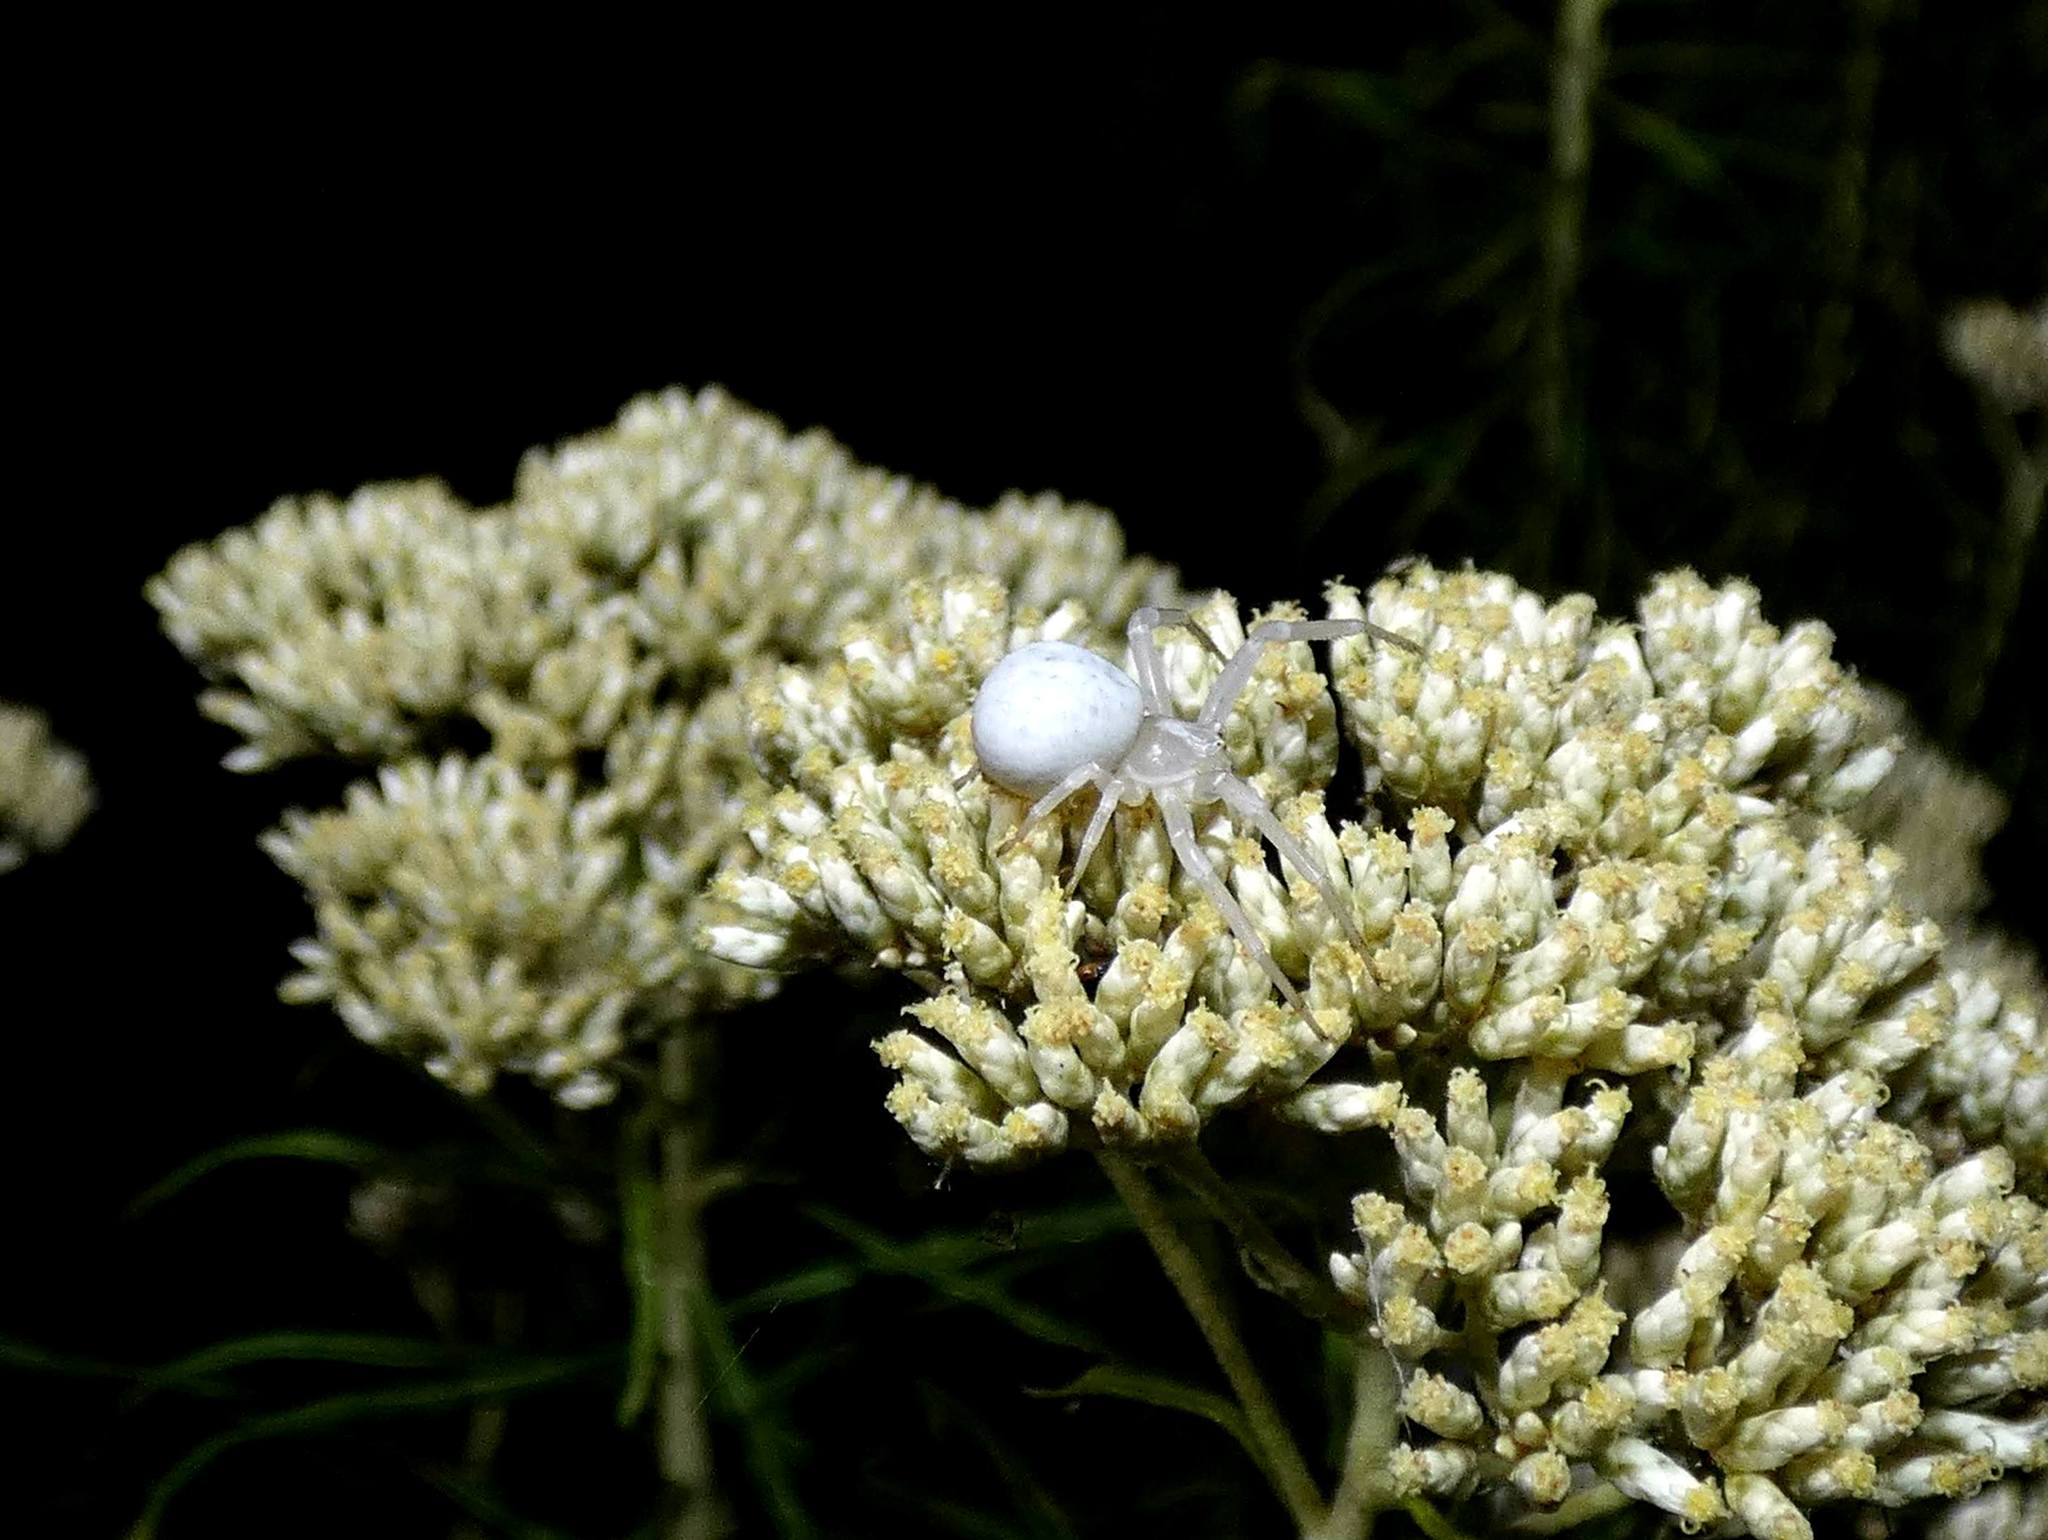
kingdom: Animalia
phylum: Arthropoda
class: Arachnida
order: Araneae
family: Thomisidae
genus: Zygometis
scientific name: Zygometis xanthogaster
